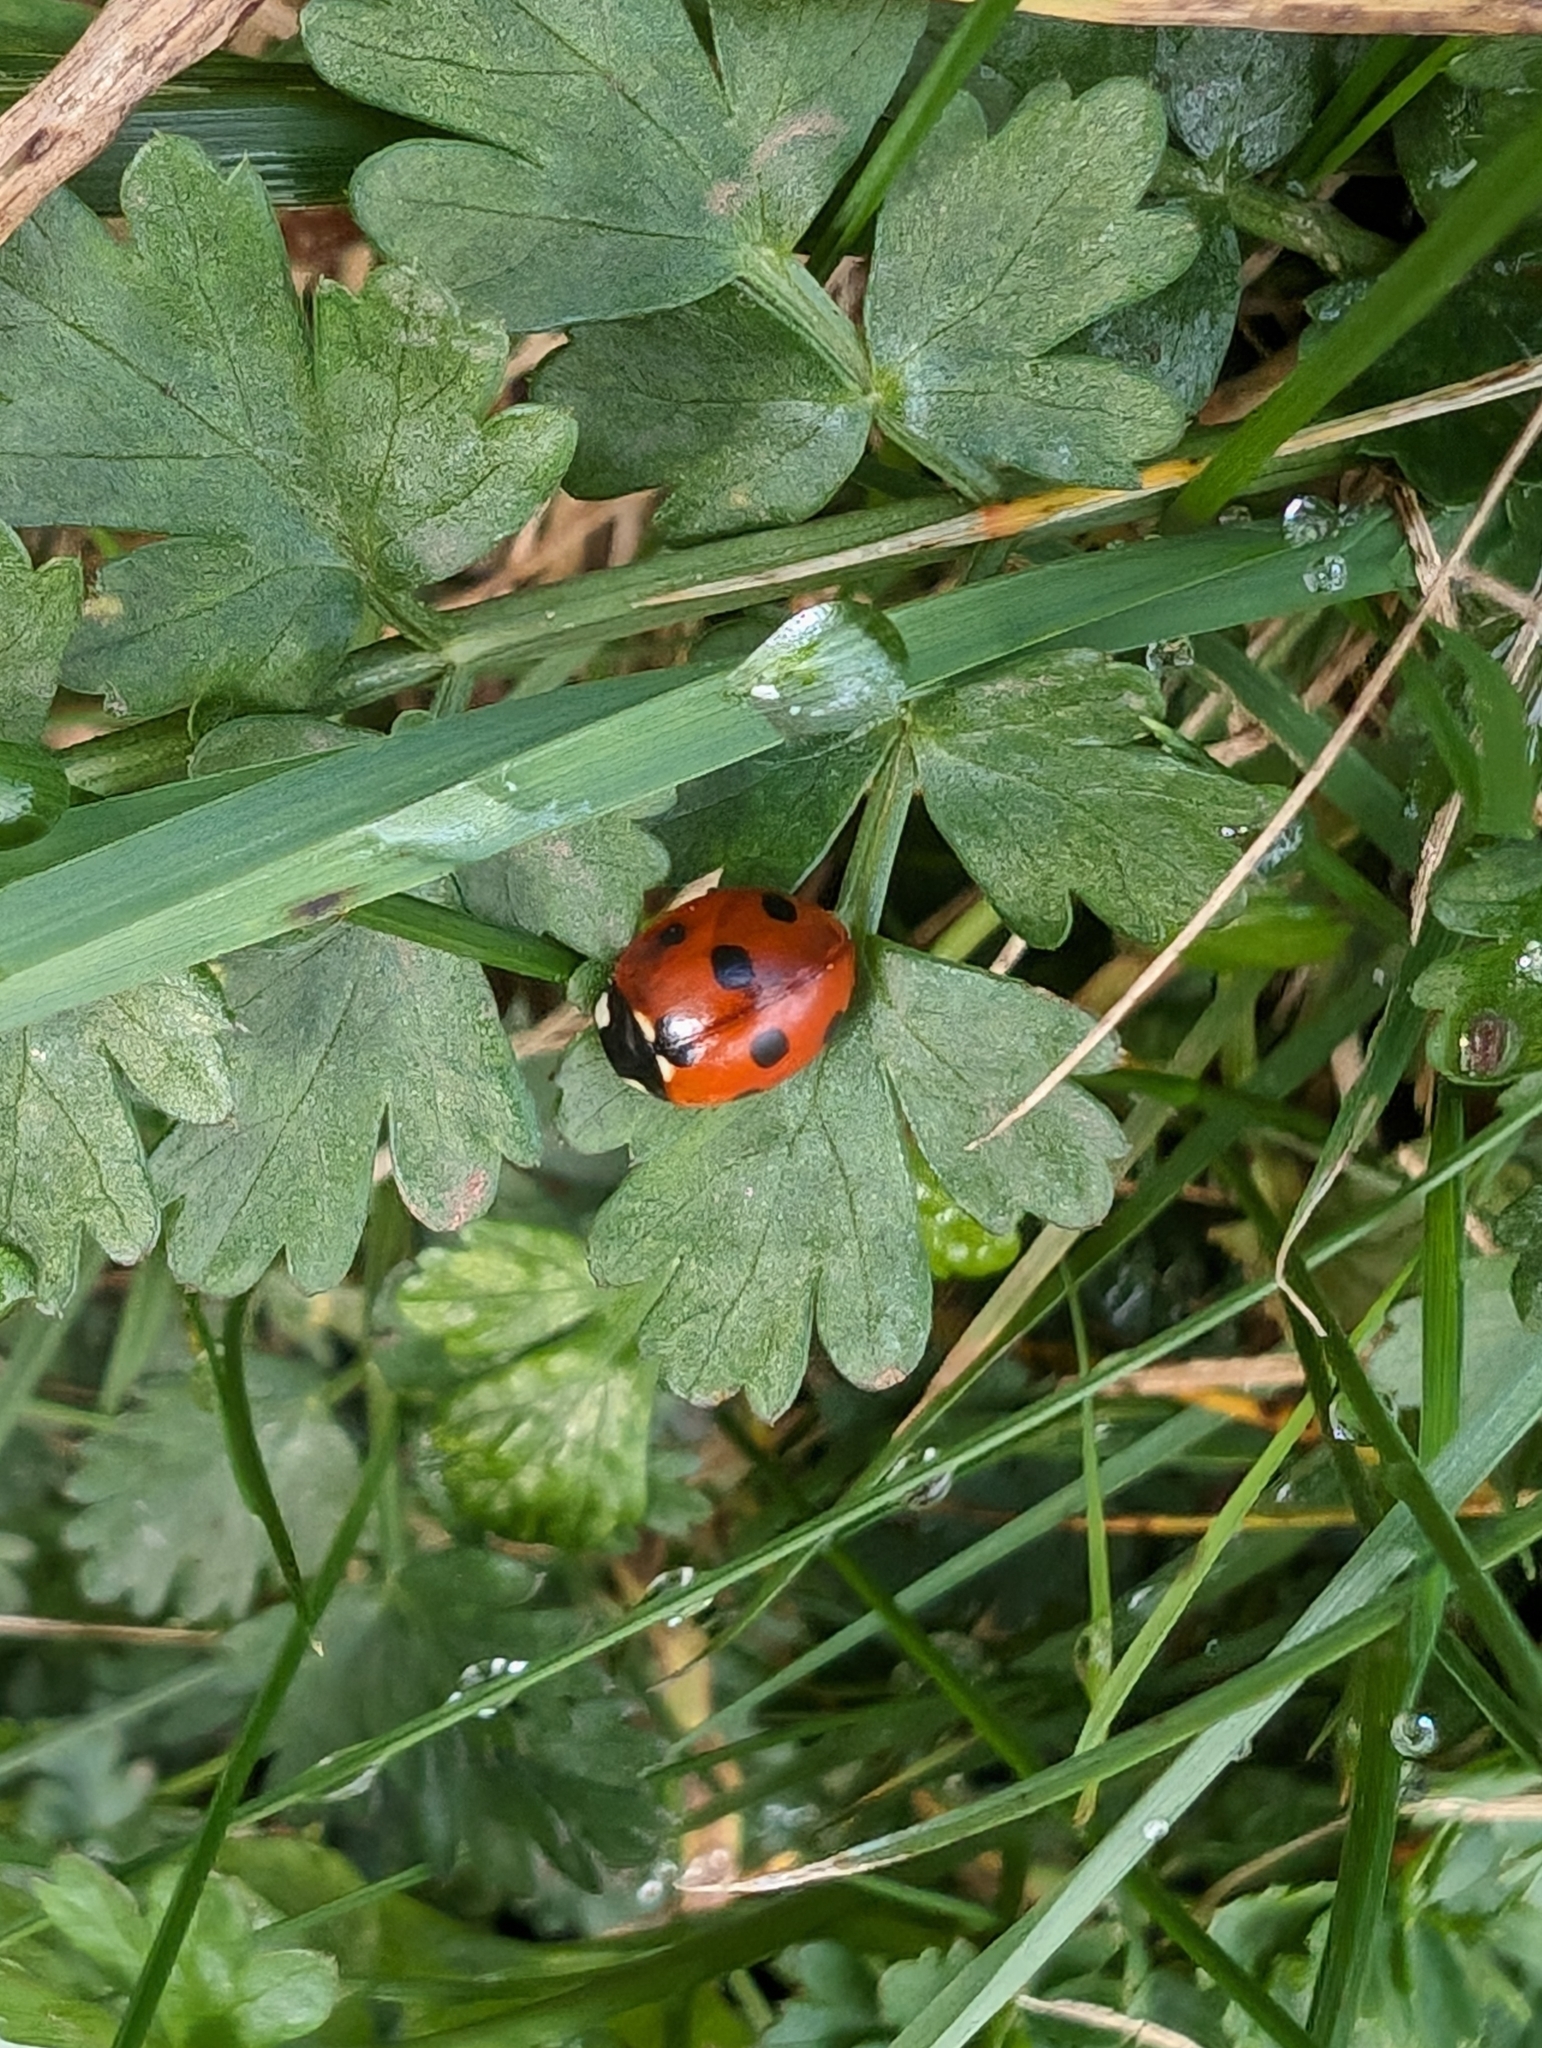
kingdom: Animalia
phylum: Arthropoda
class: Insecta
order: Coleoptera
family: Coccinellidae
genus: Coccinella
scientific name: Coccinella septempunctata
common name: Sevenspotted lady beetle
